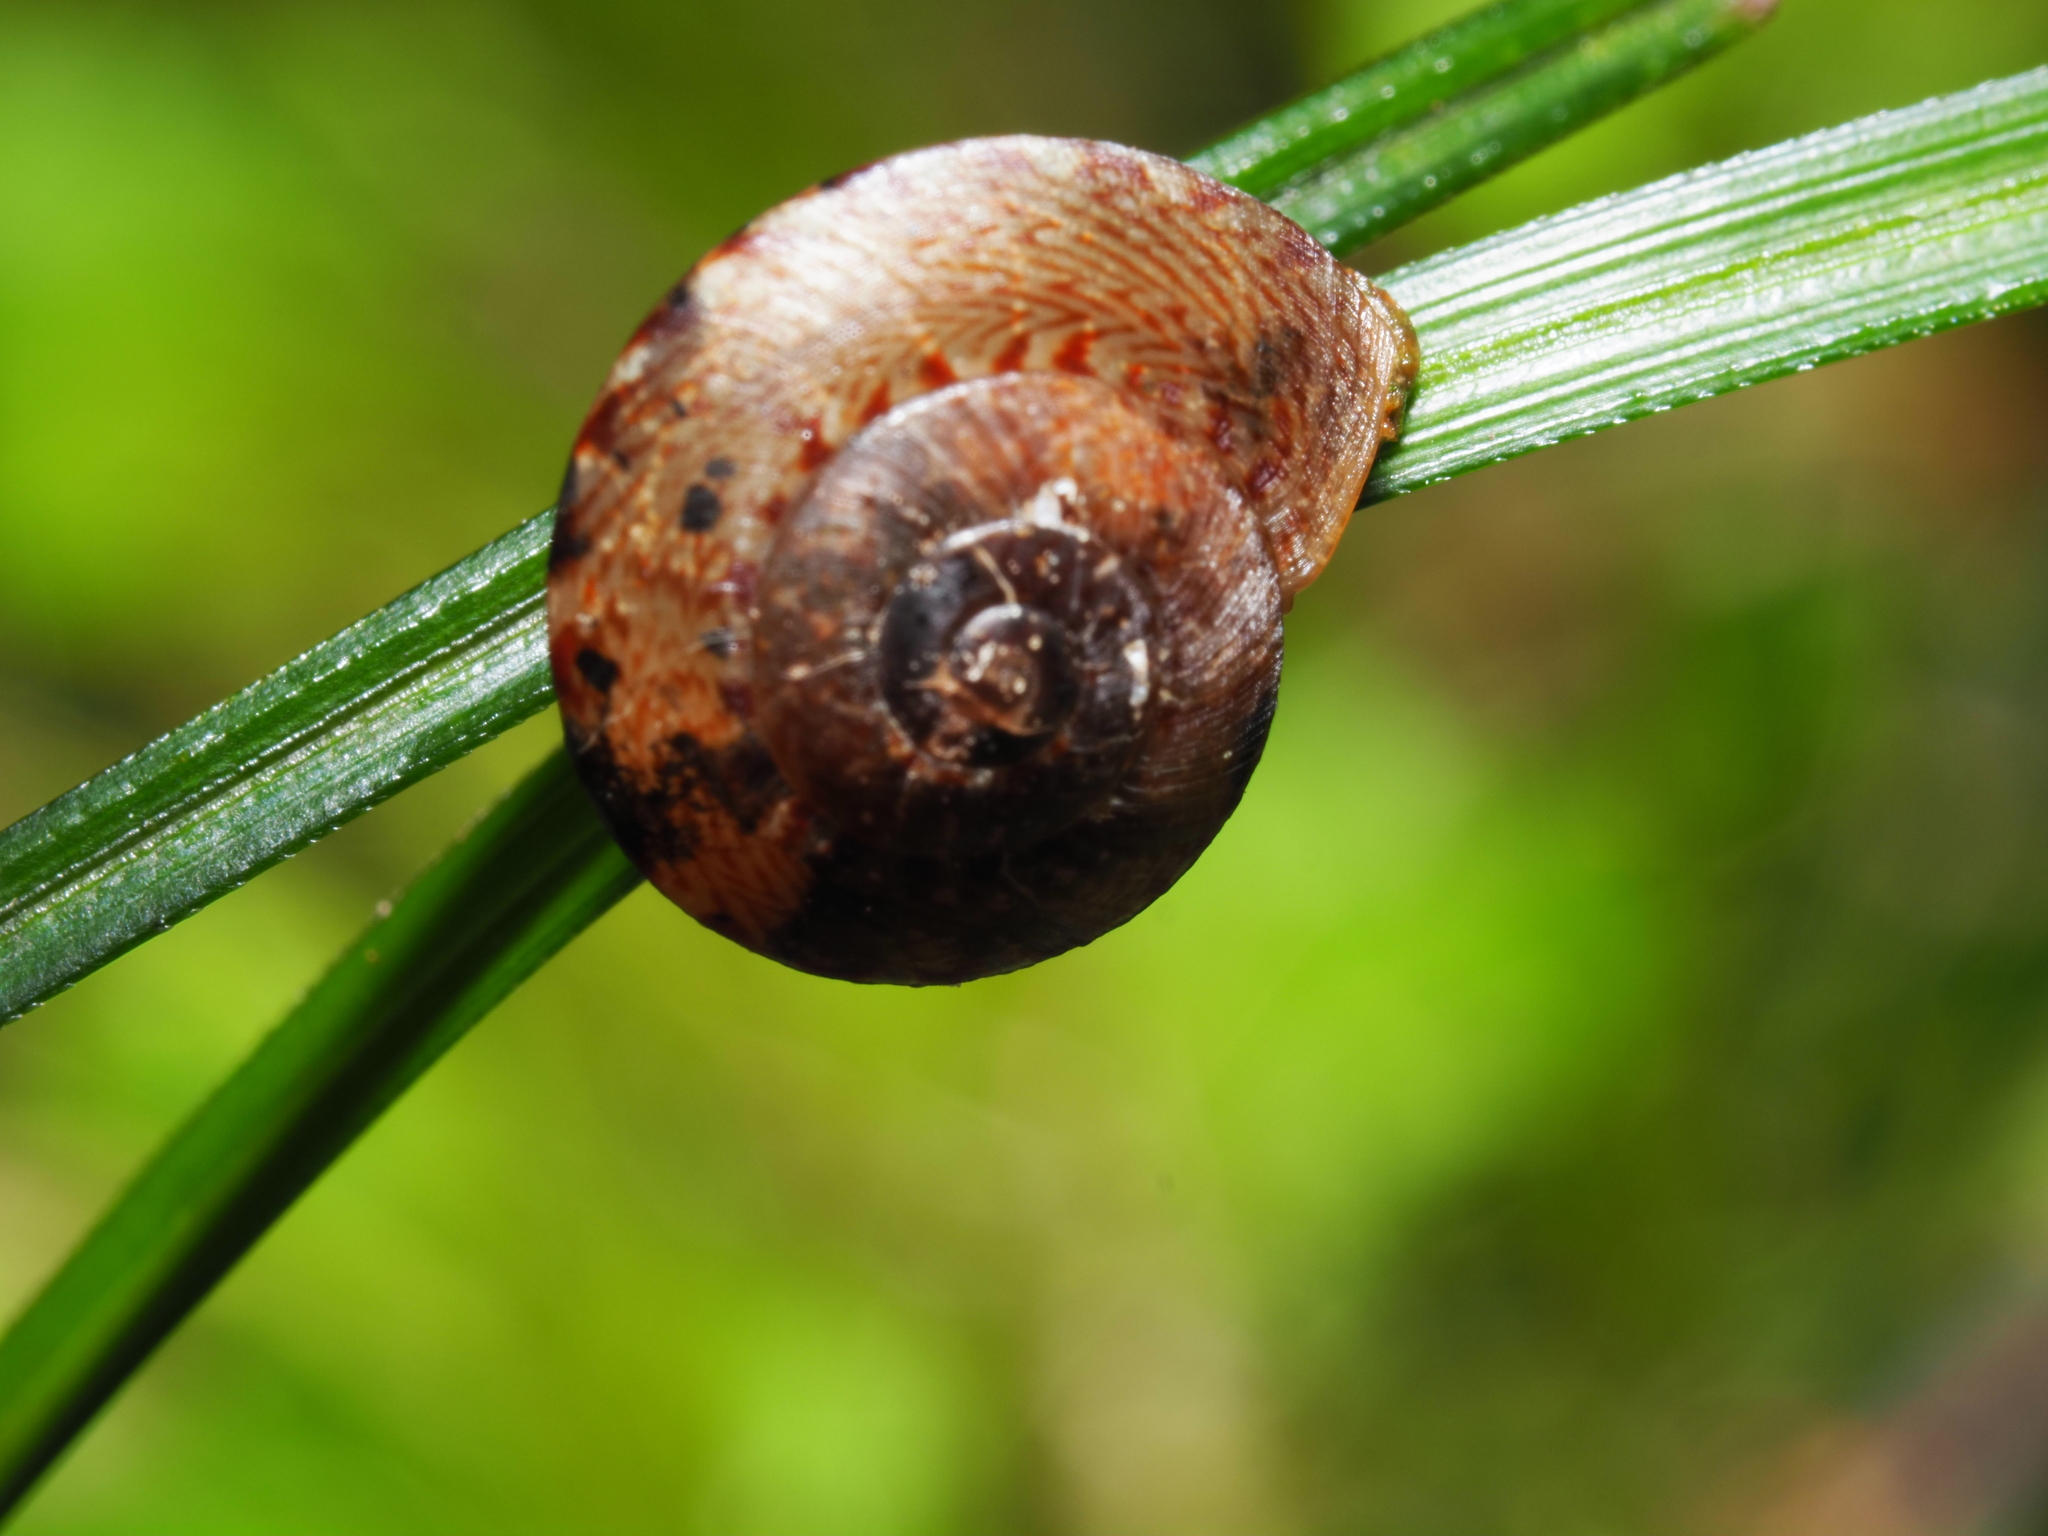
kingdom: Animalia
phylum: Mollusca
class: Gastropoda
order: Stylommatophora
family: Charopidae
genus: Thalassohelix
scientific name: Thalassohelix zelandiae
